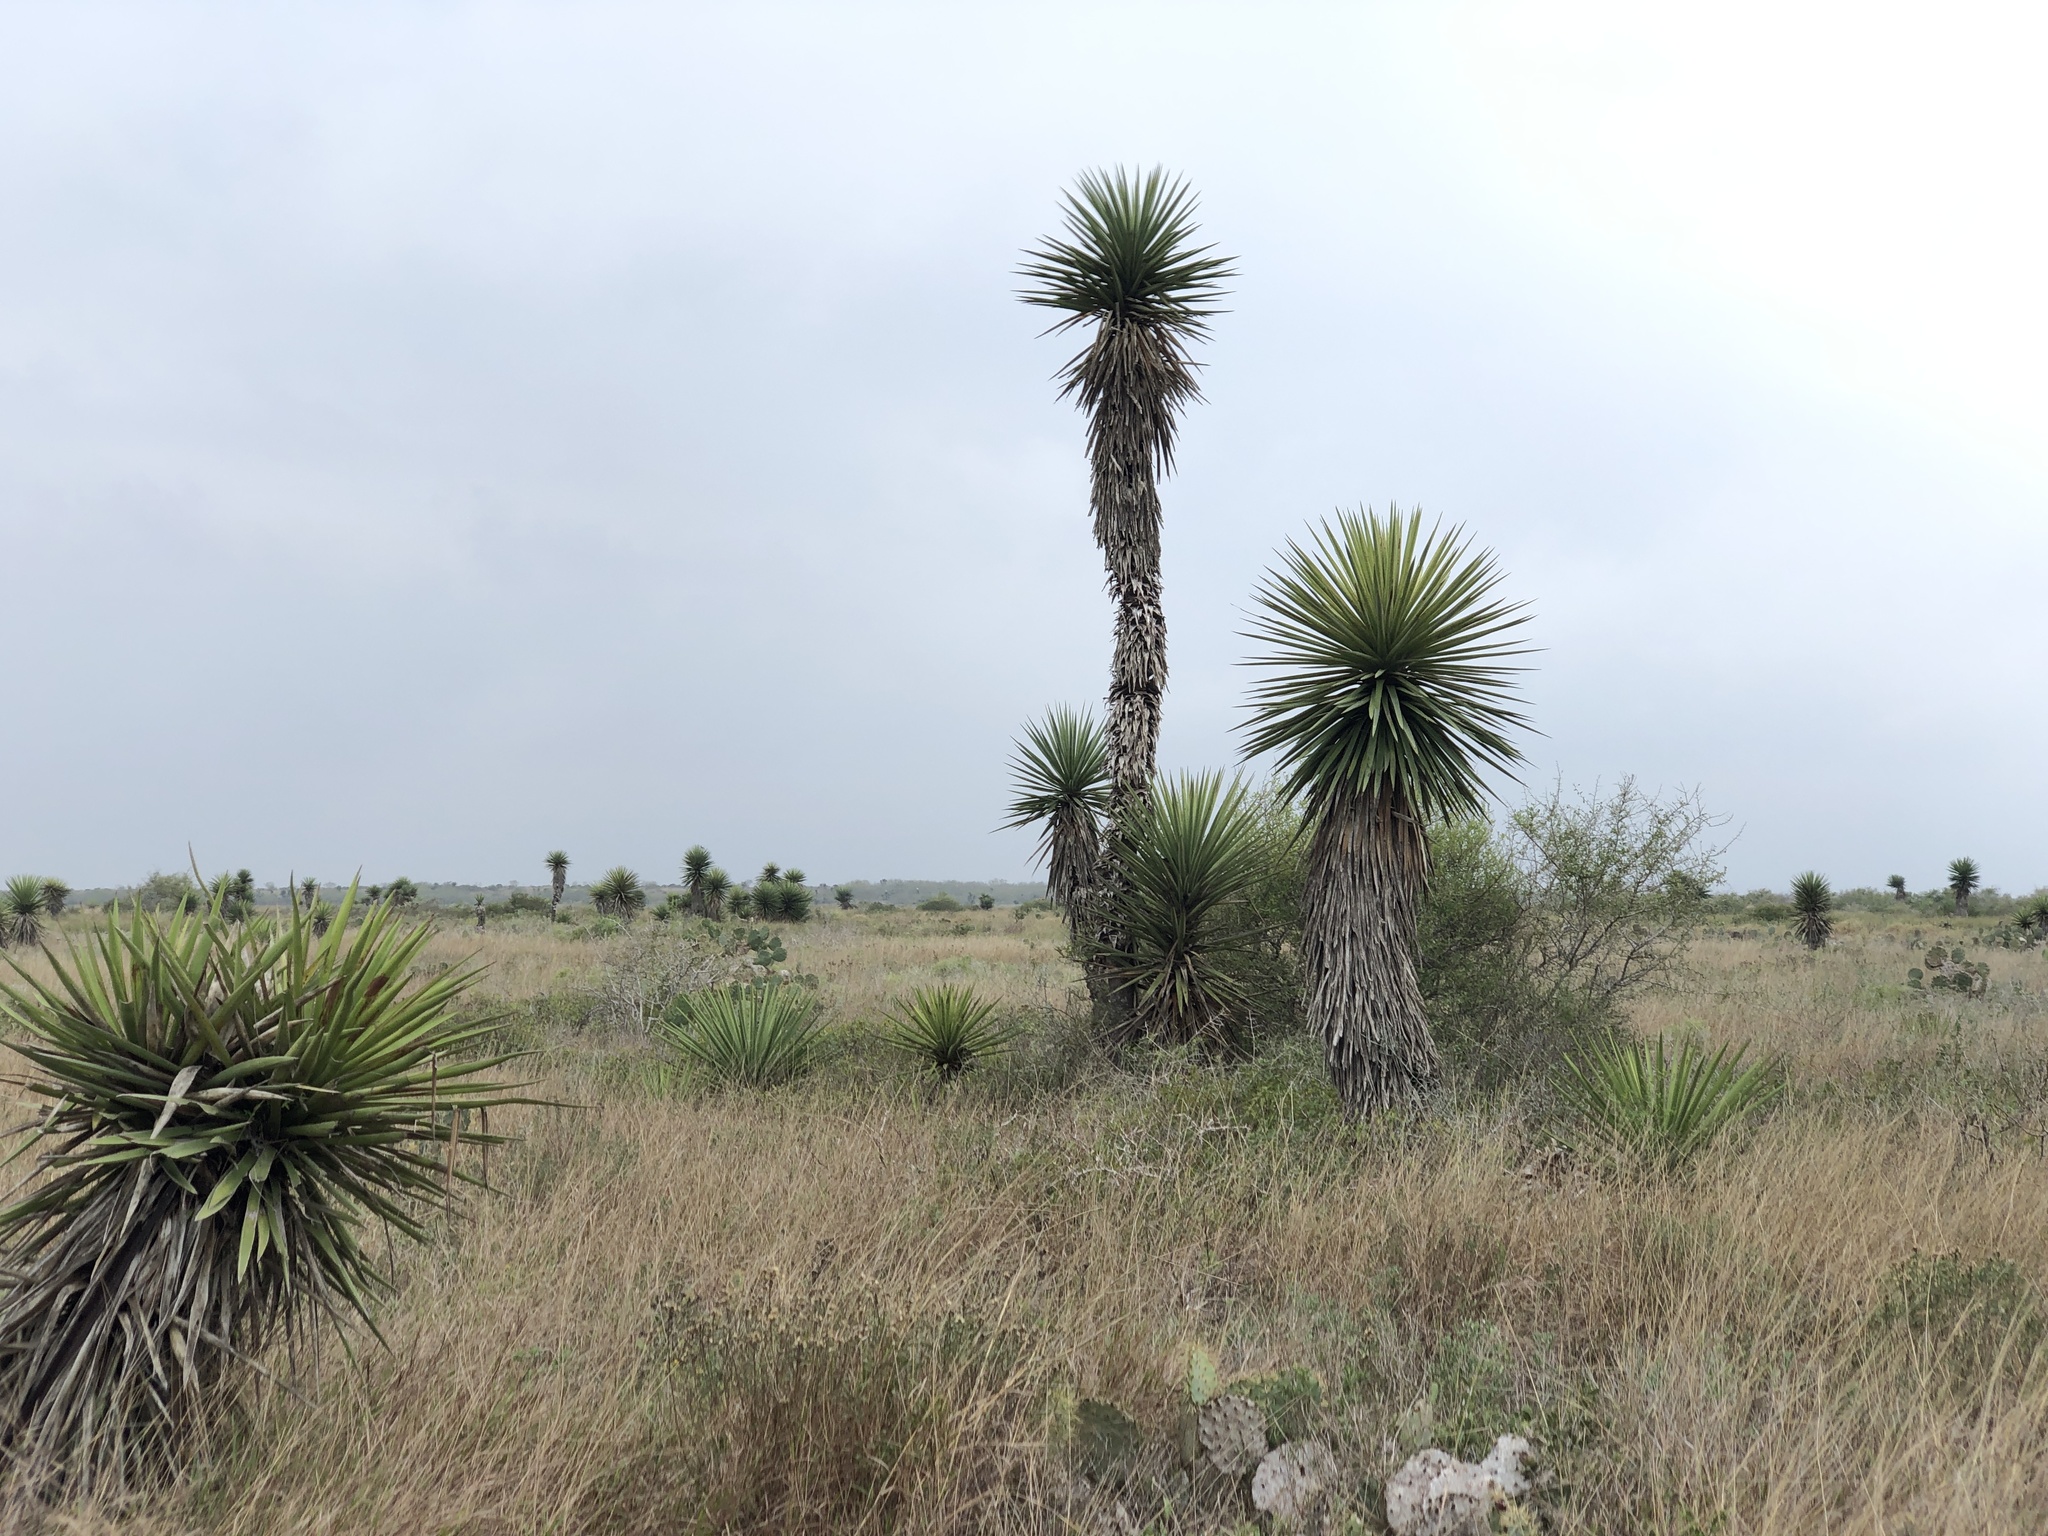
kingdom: Plantae
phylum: Tracheophyta
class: Liliopsida
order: Asparagales
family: Asparagaceae
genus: Yucca
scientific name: Yucca treculiana
